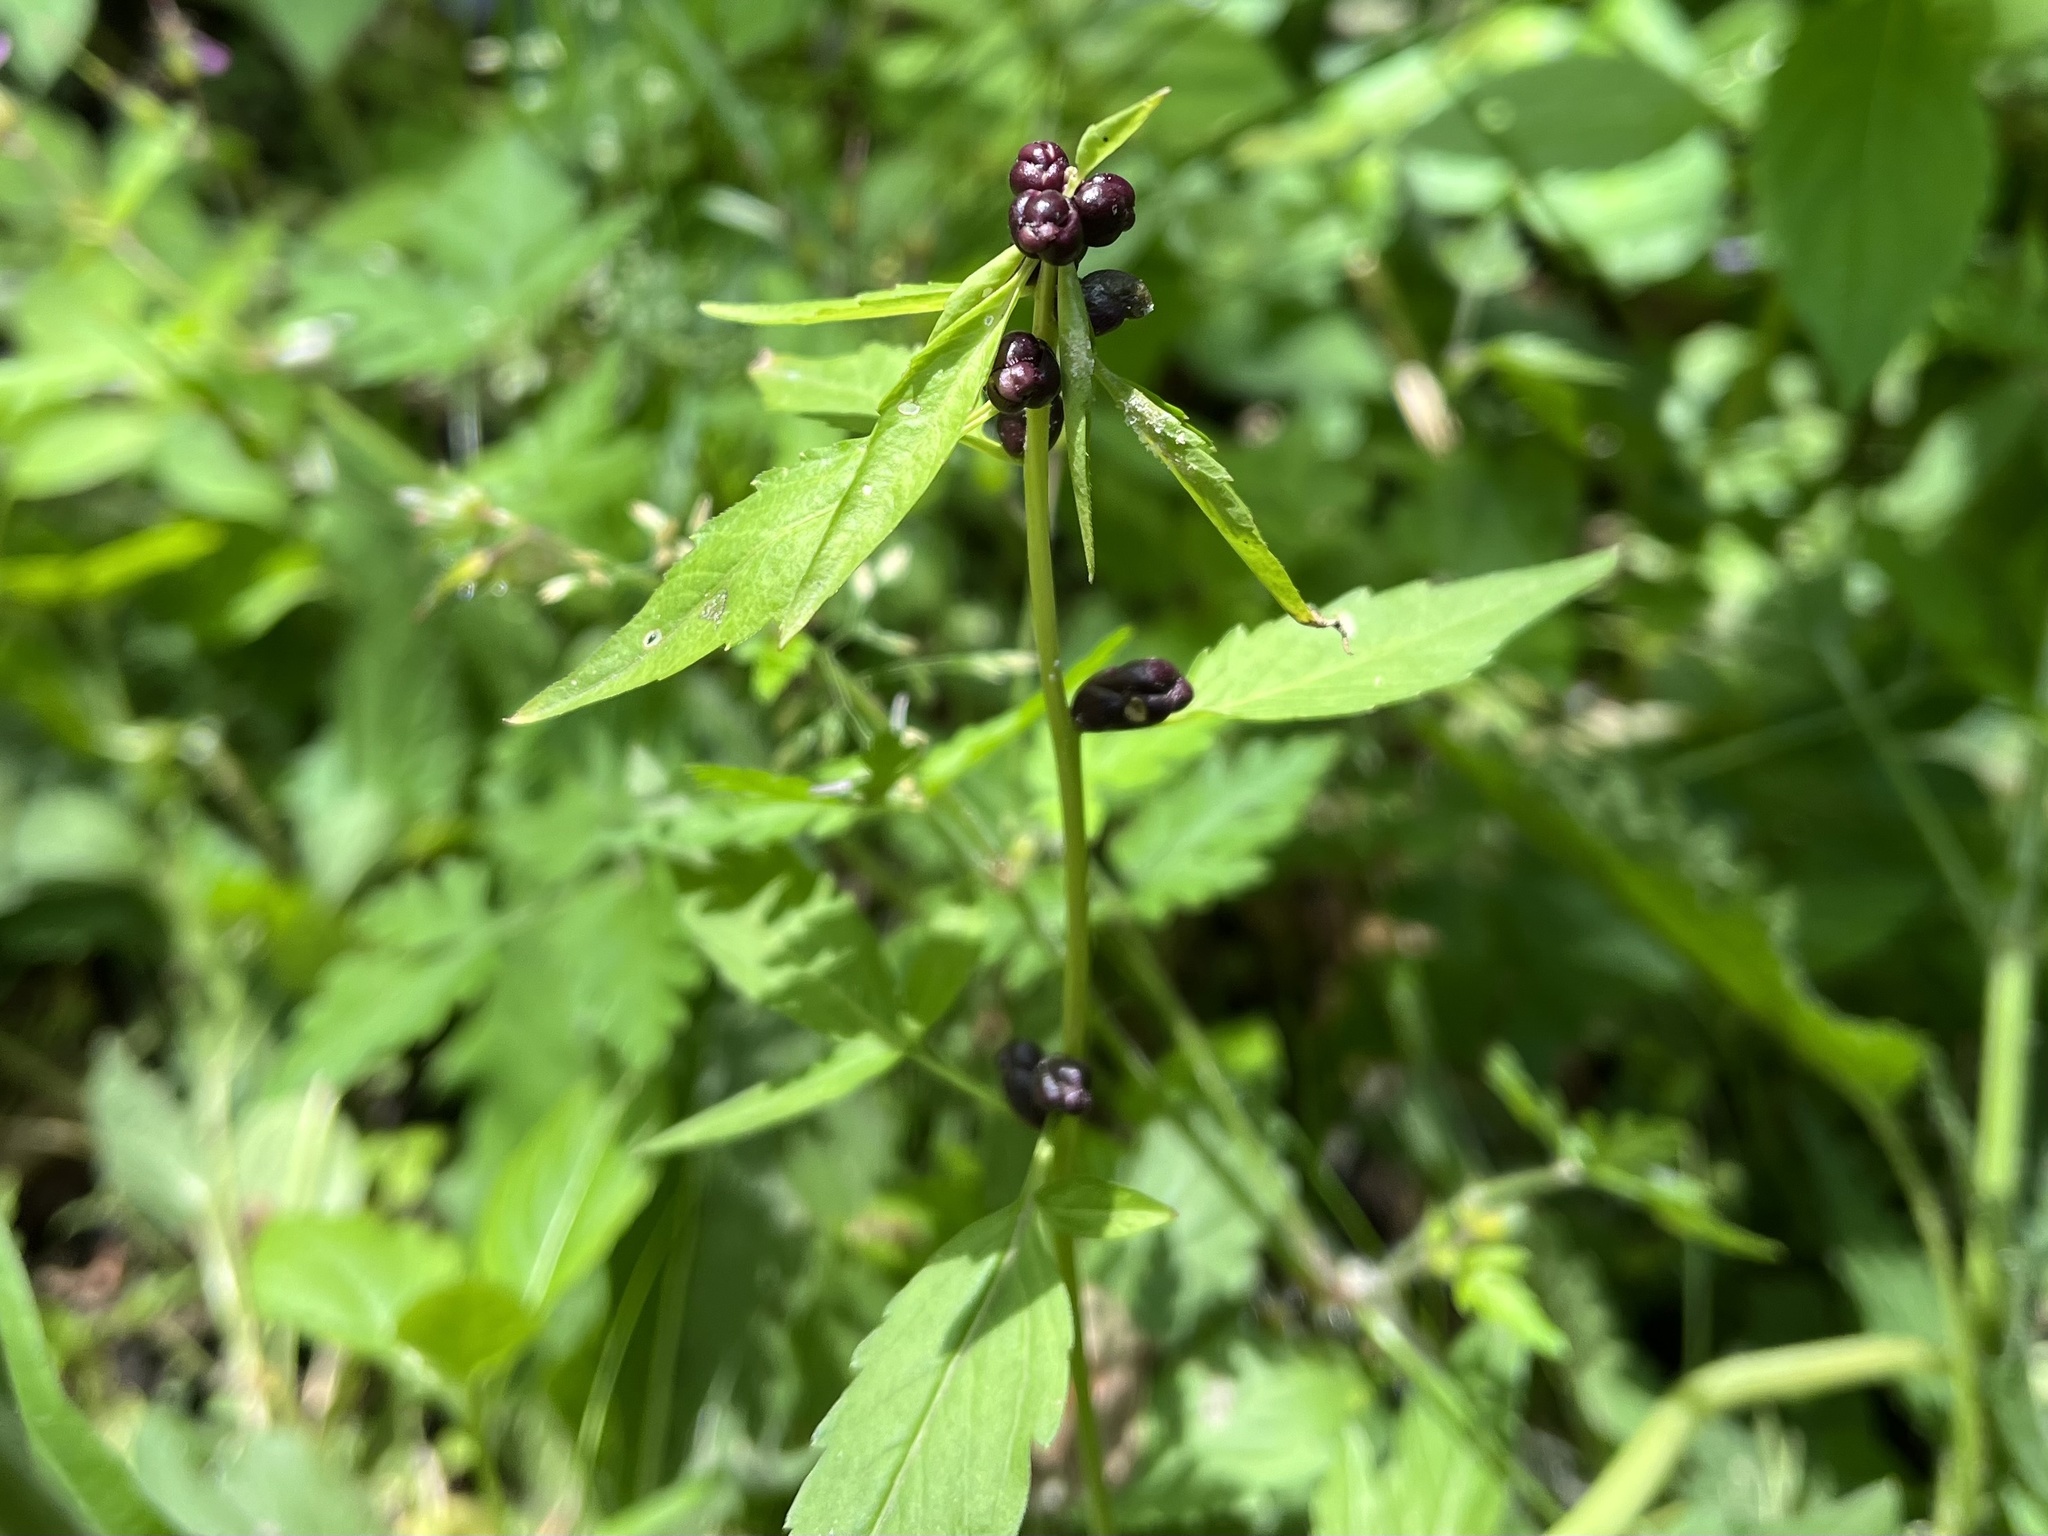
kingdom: Plantae
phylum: Tracheophyta
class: Magnoliopsida
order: Brassicales
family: Brassicaceae
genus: Cardamine
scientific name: Cardamine bulbifera
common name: Coralroot bittercress
